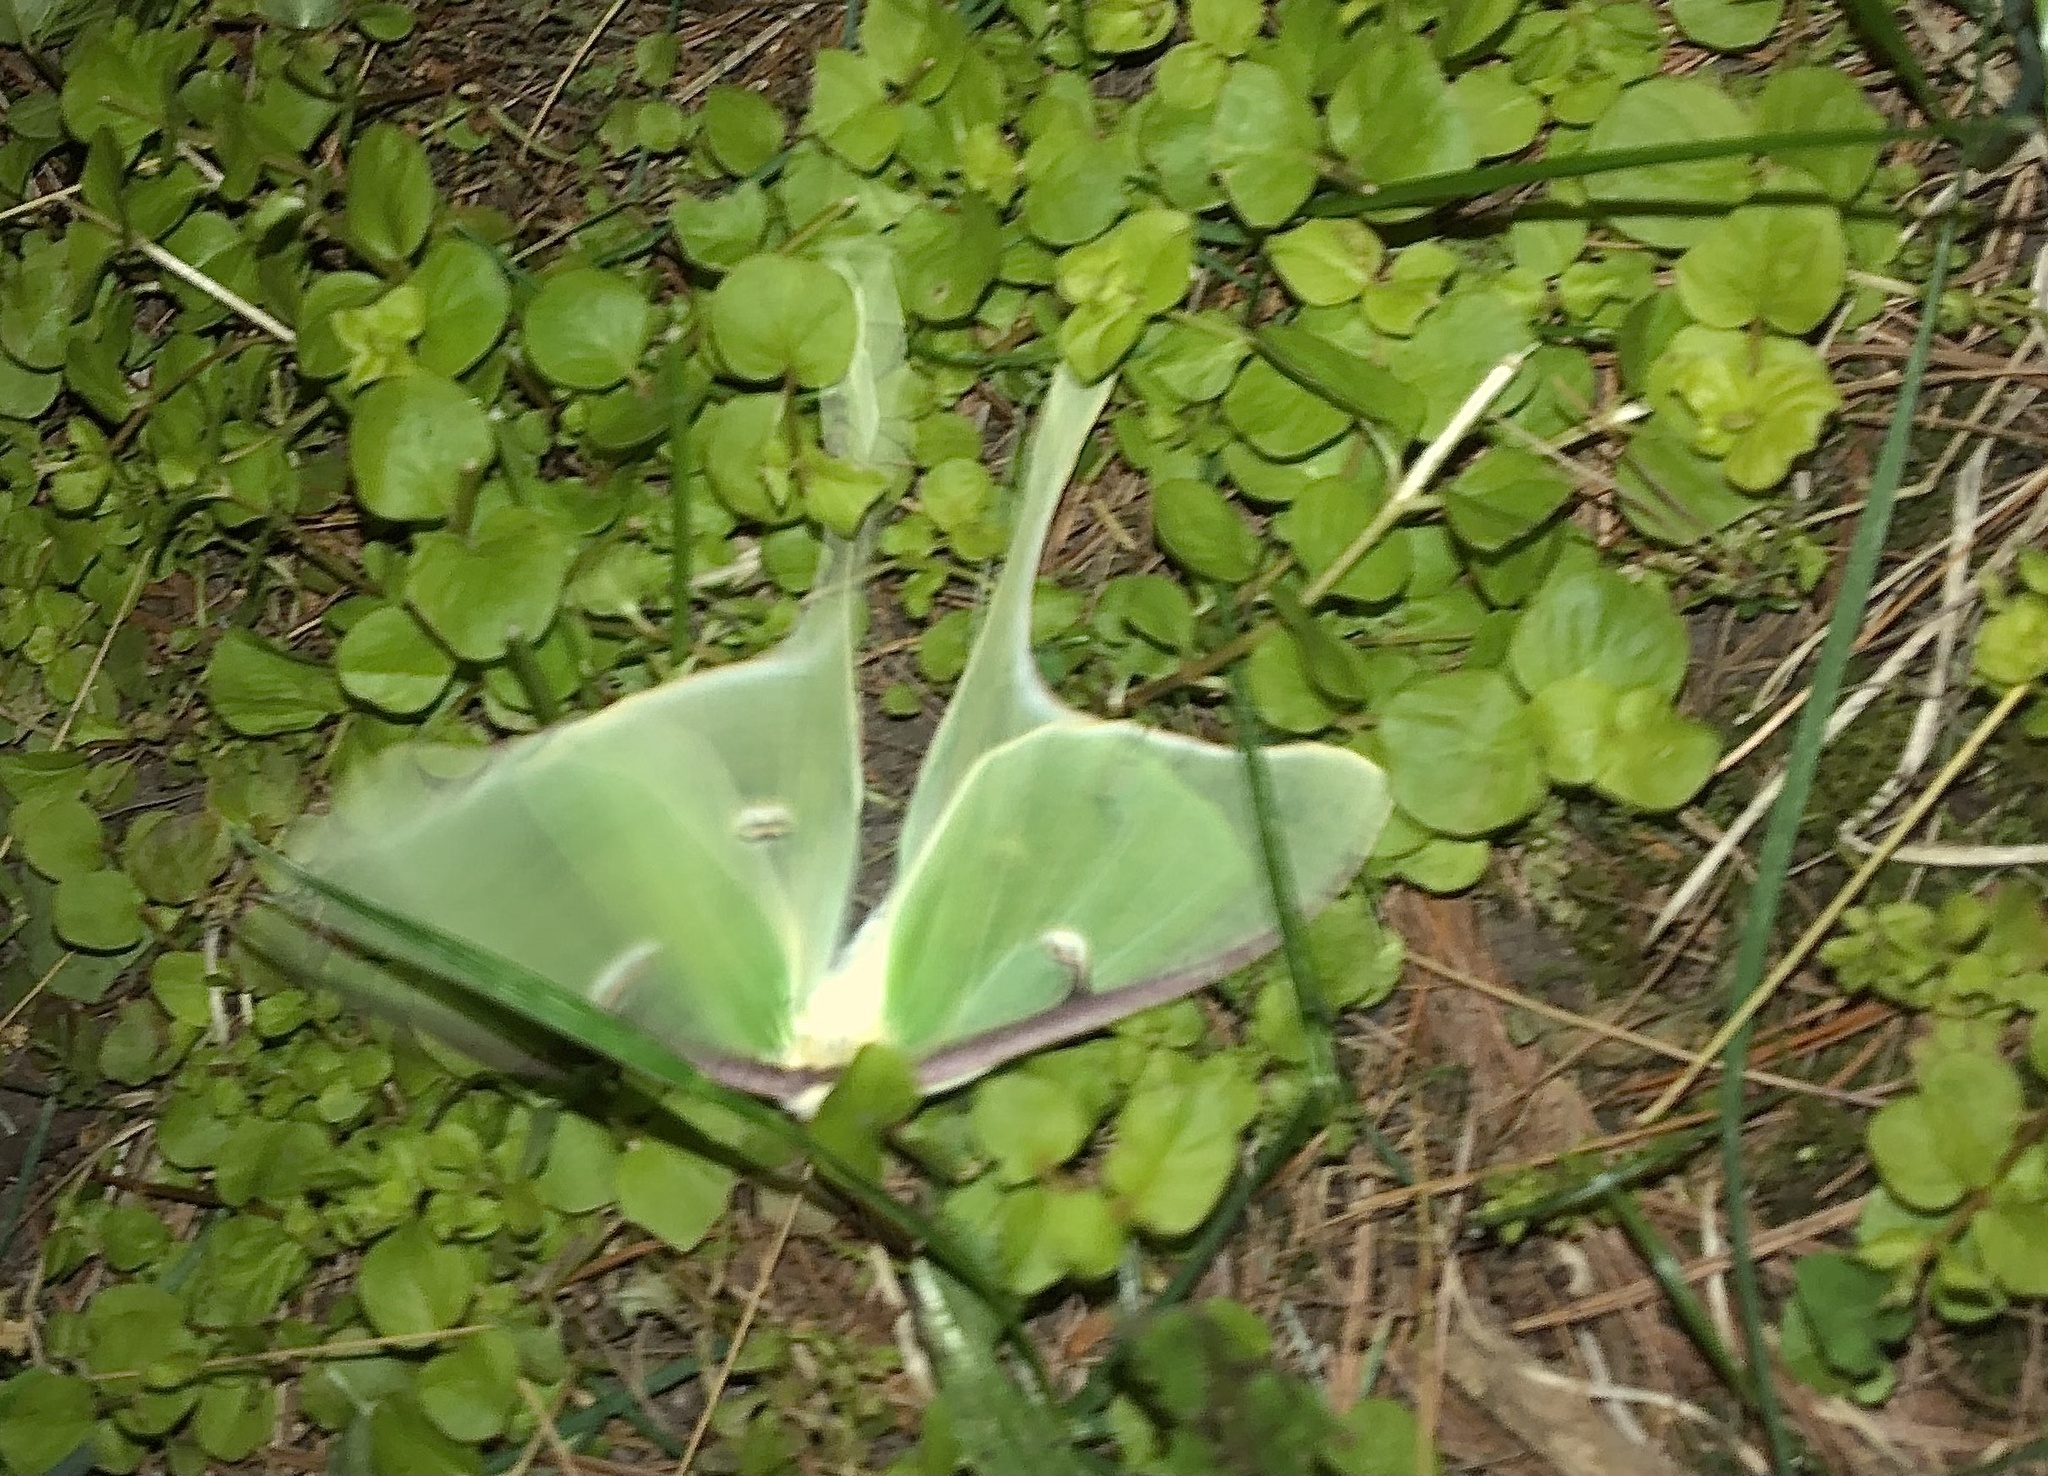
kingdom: Animalia
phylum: Arthropoda
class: Insecta
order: Lepidoptera
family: Saturniidae
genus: Actias
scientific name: Actias luna
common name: Luna moth
